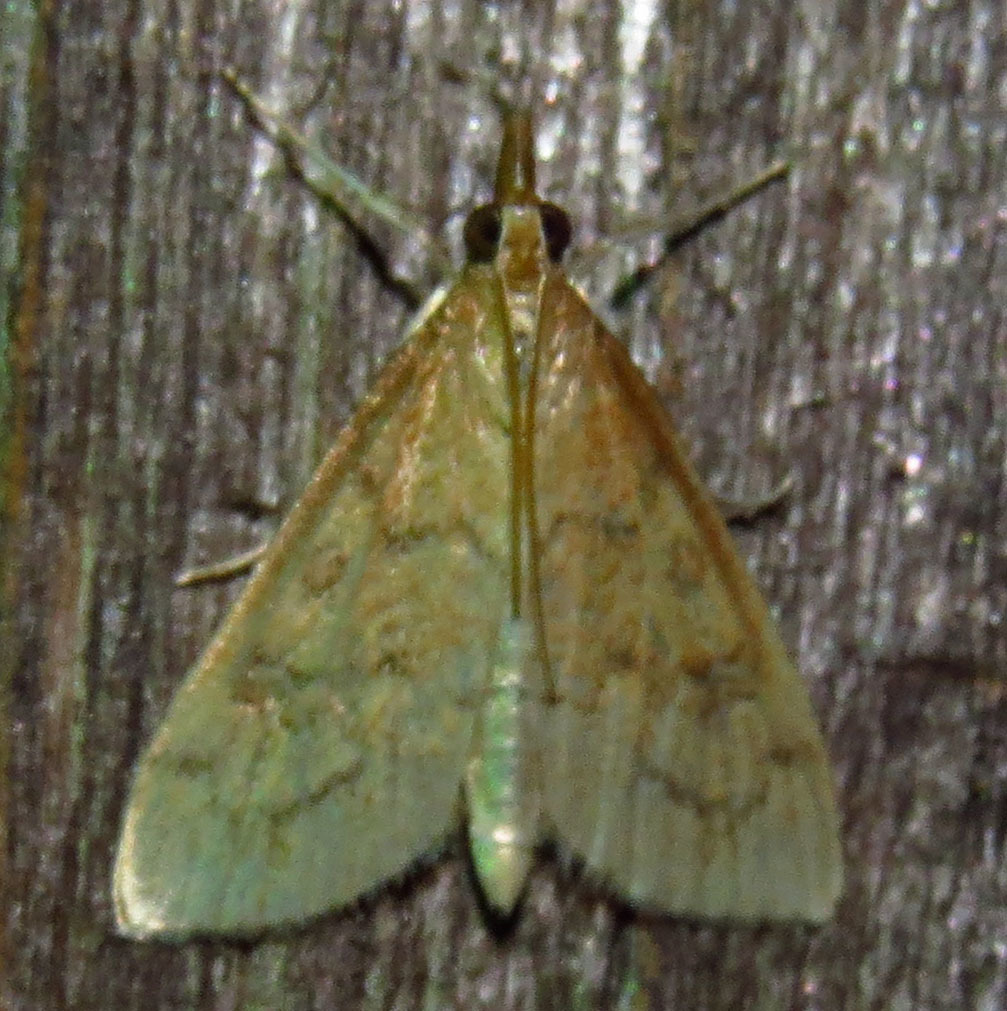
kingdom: Animalia
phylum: Arthropoda
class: Insecta
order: Lepidoptera
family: Crambidae
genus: Udea
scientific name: Udea rubigalis
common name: Celery leaftier moth
